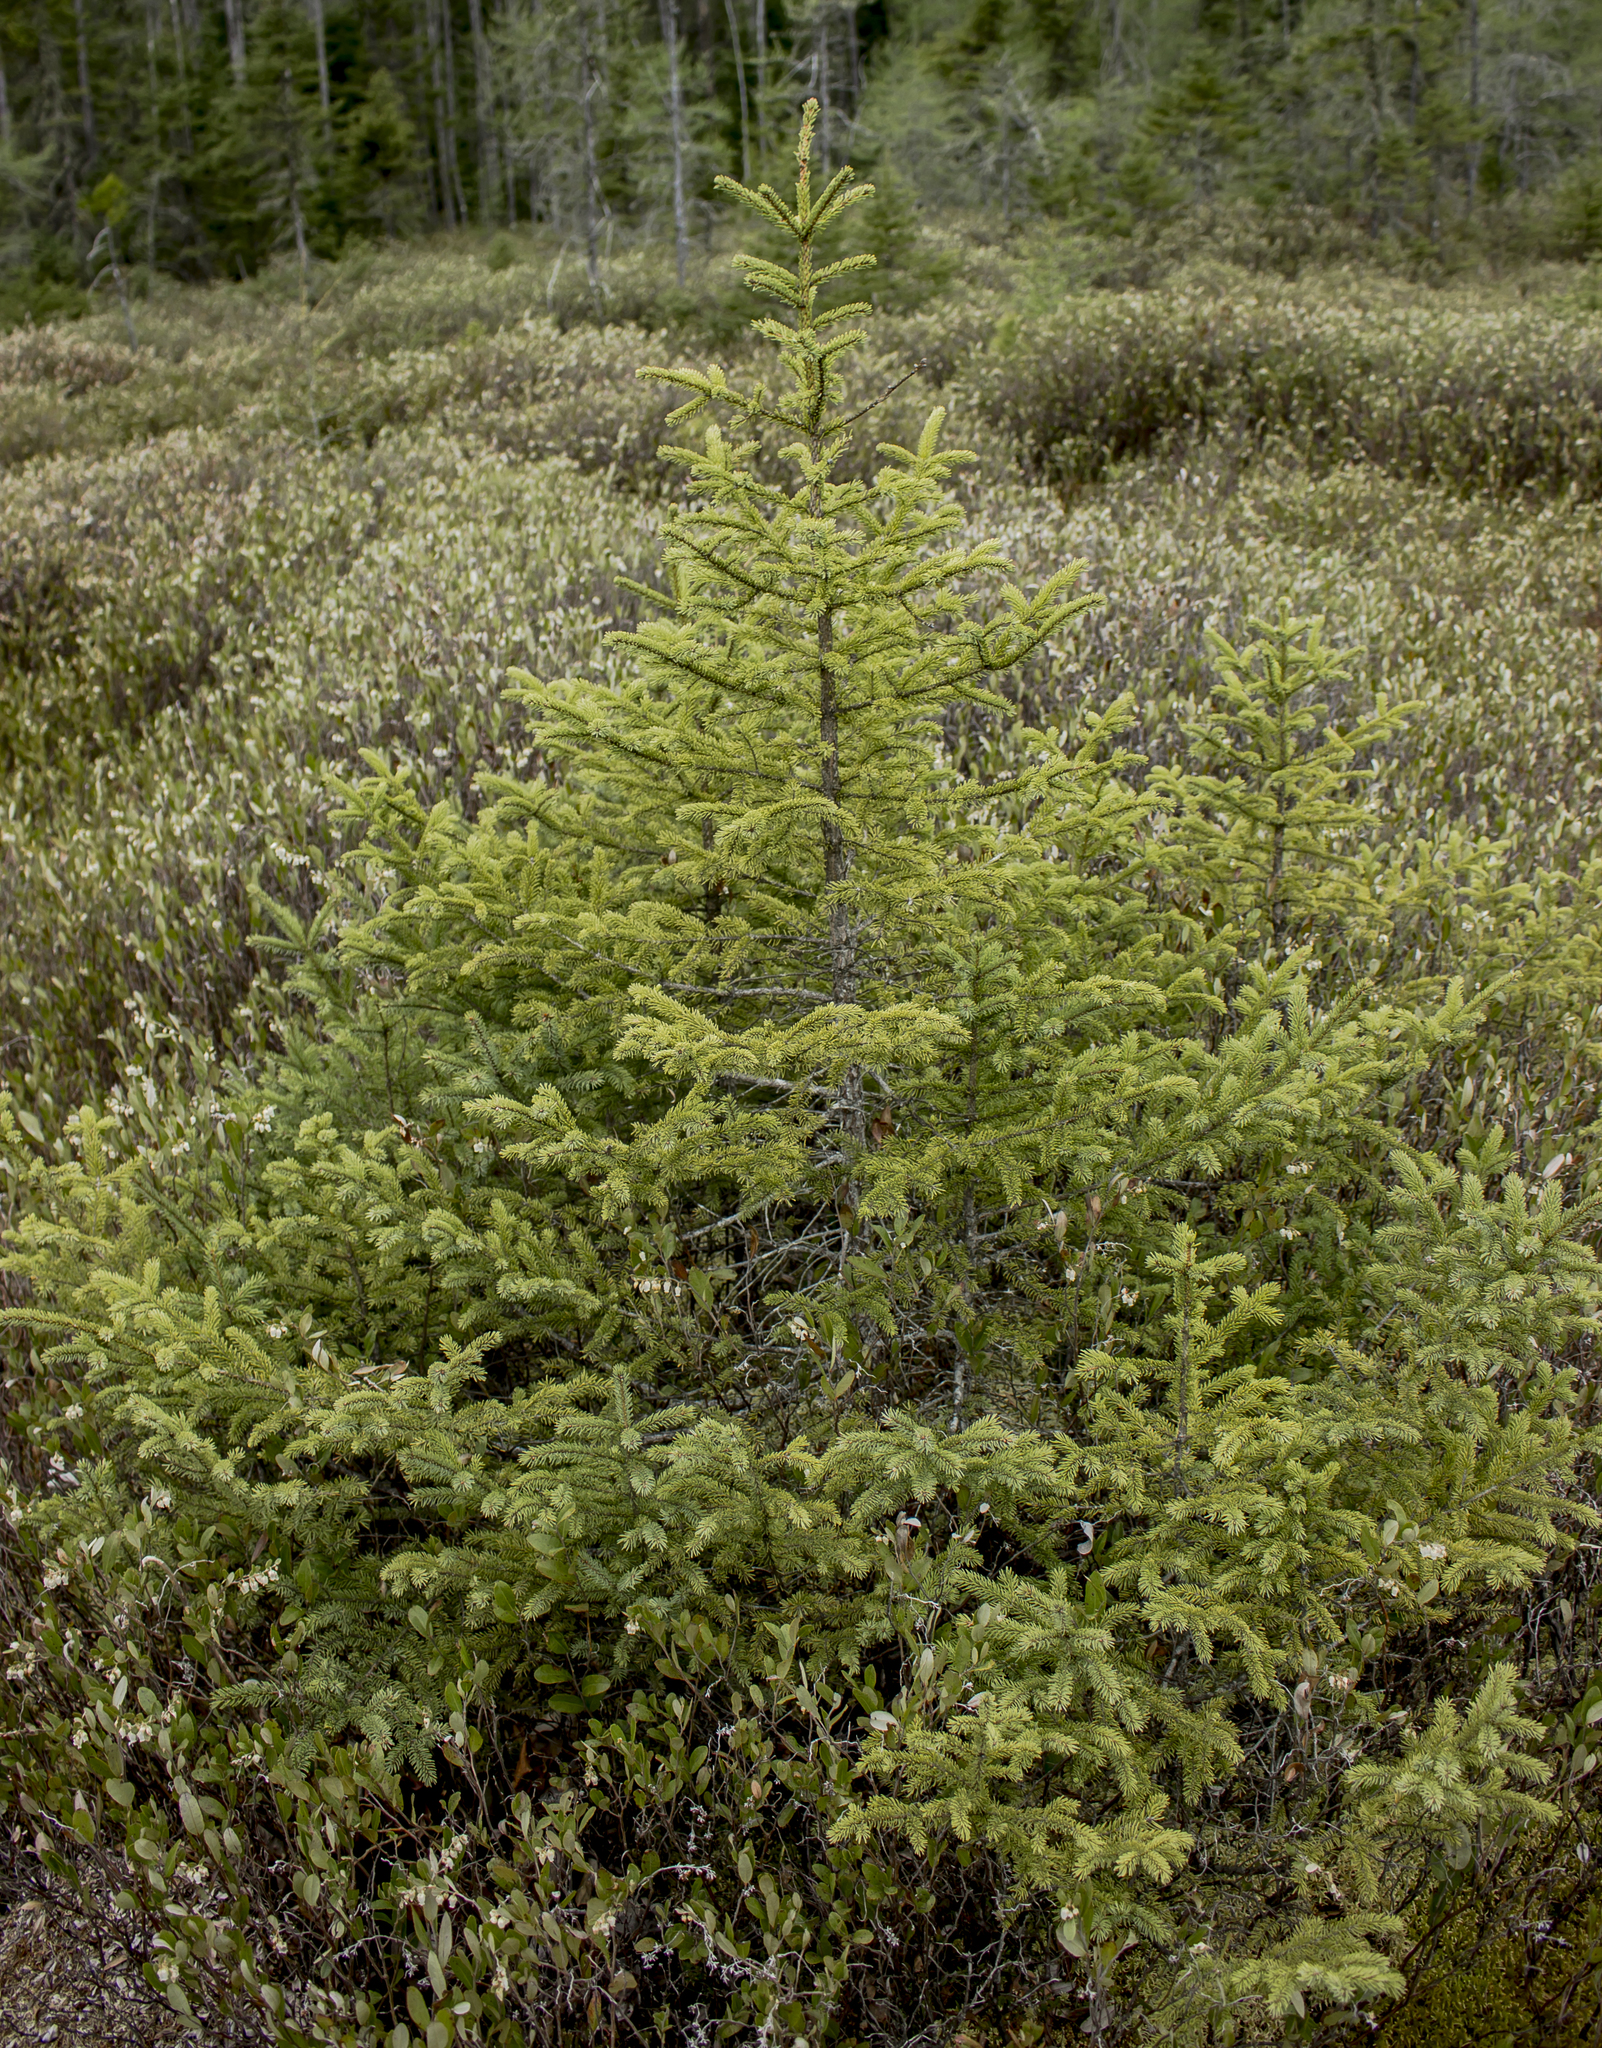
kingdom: Plantae
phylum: Tracheophyta
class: Pinopsida
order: Pinales
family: Pinaceae
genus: Picea
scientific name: Picea mariana
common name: Black spruce
